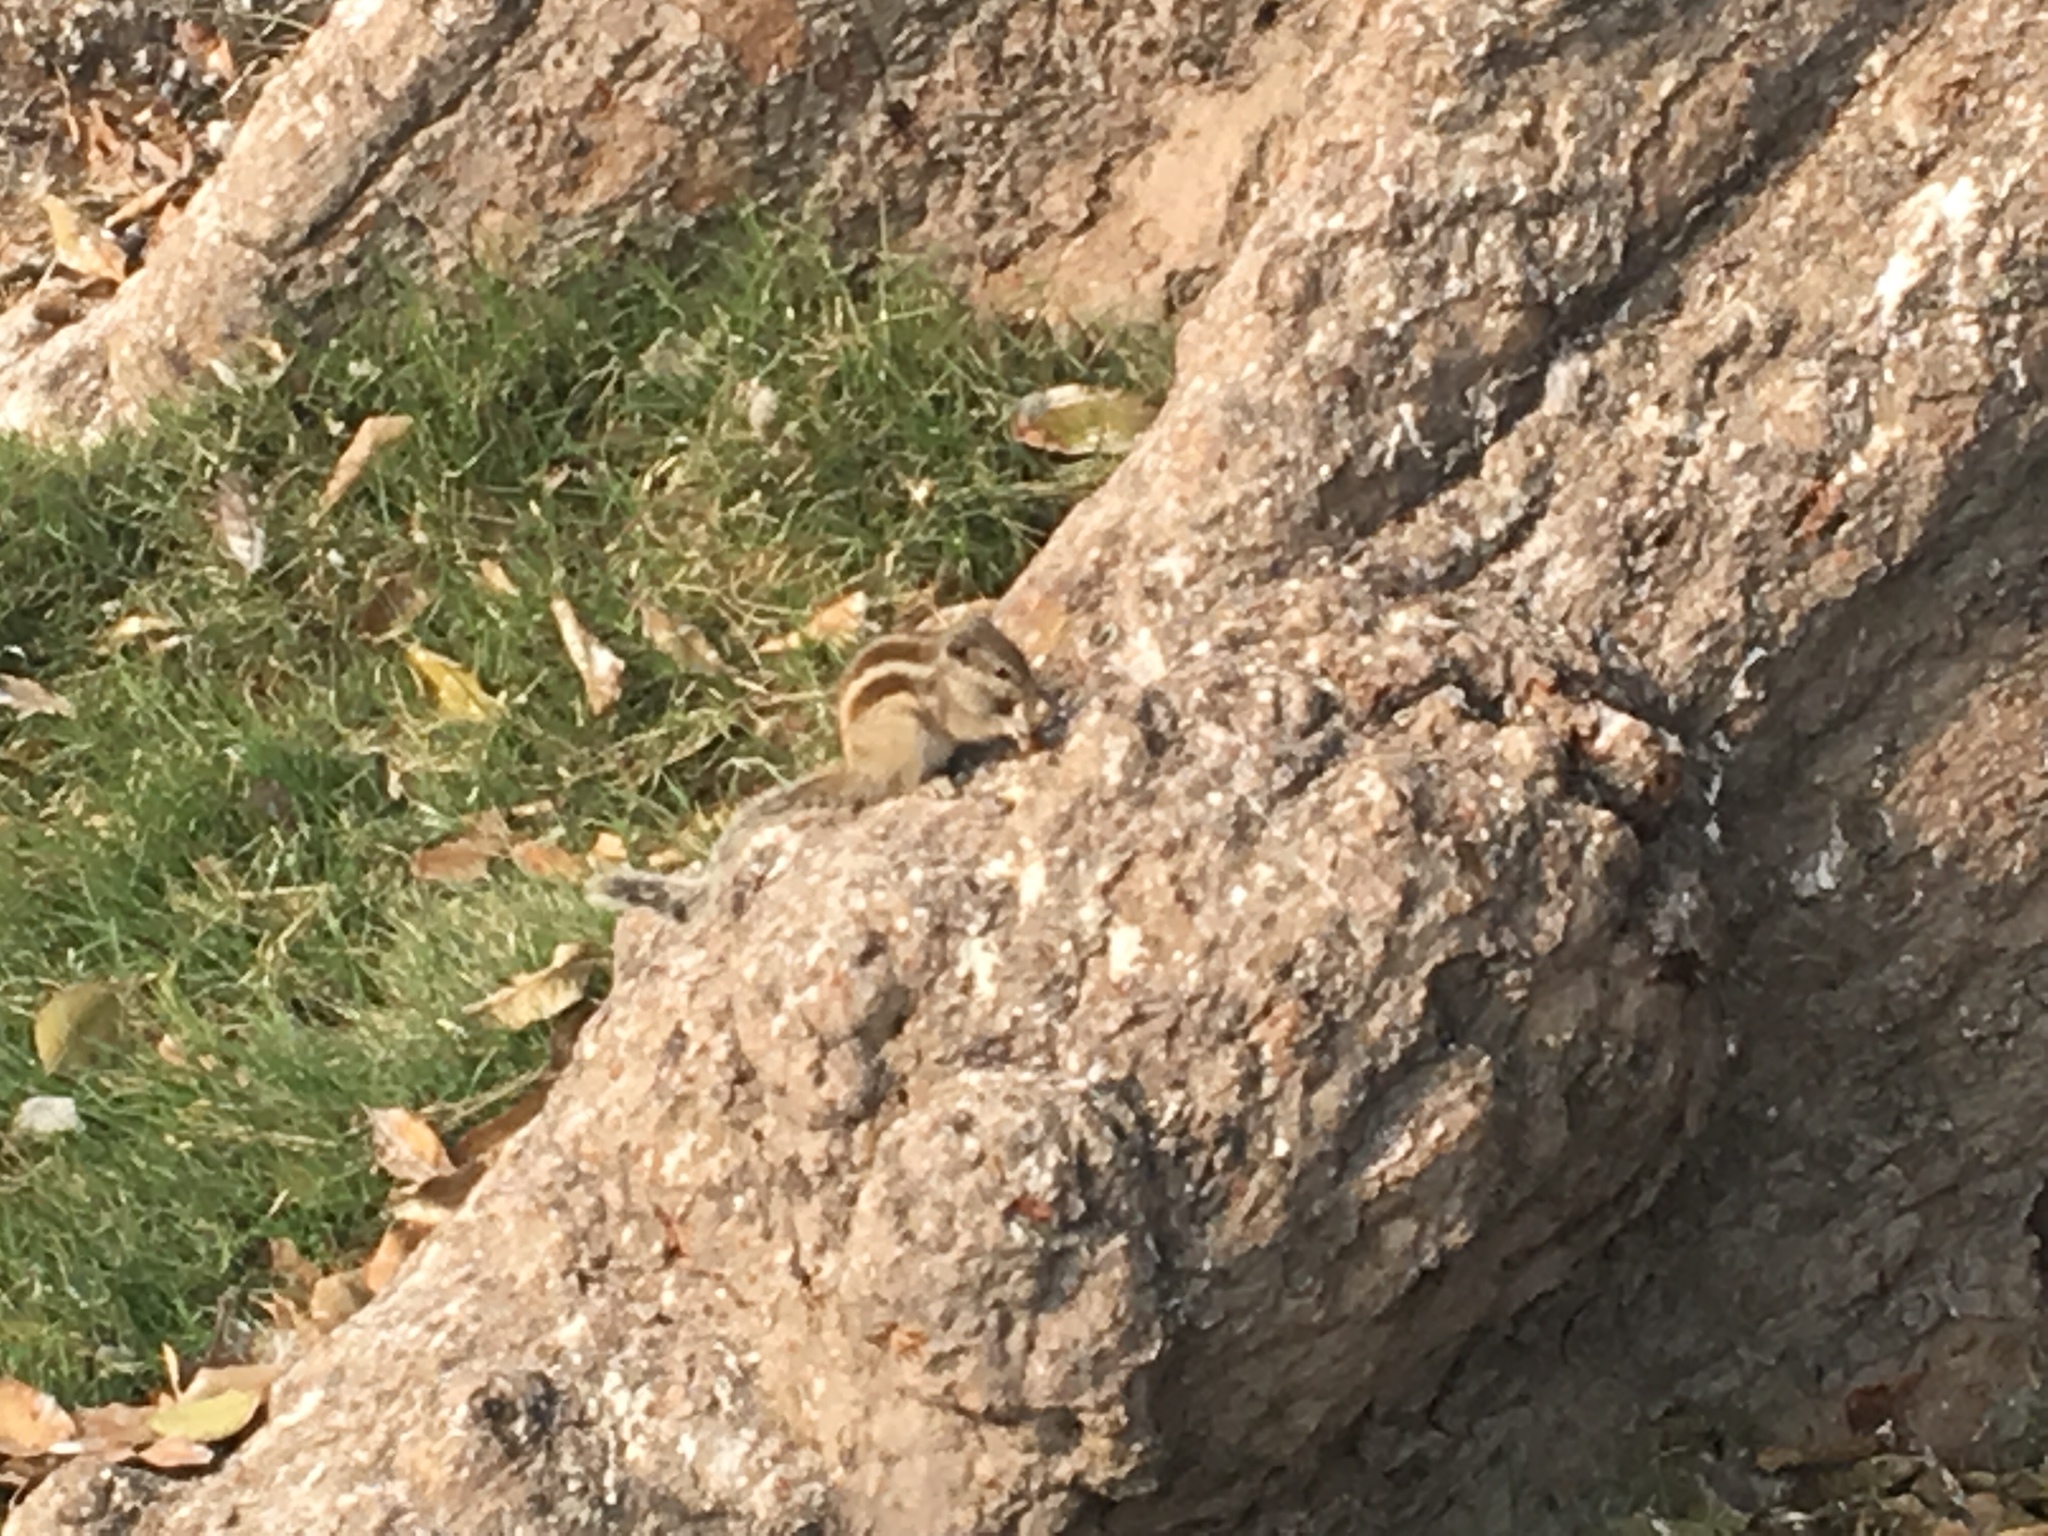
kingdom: Animalia
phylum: Chordata
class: Mammalia
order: Rodentia
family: Sciuridae
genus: Funambulus
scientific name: Funambulus pennantii
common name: Northern palm squirrel
